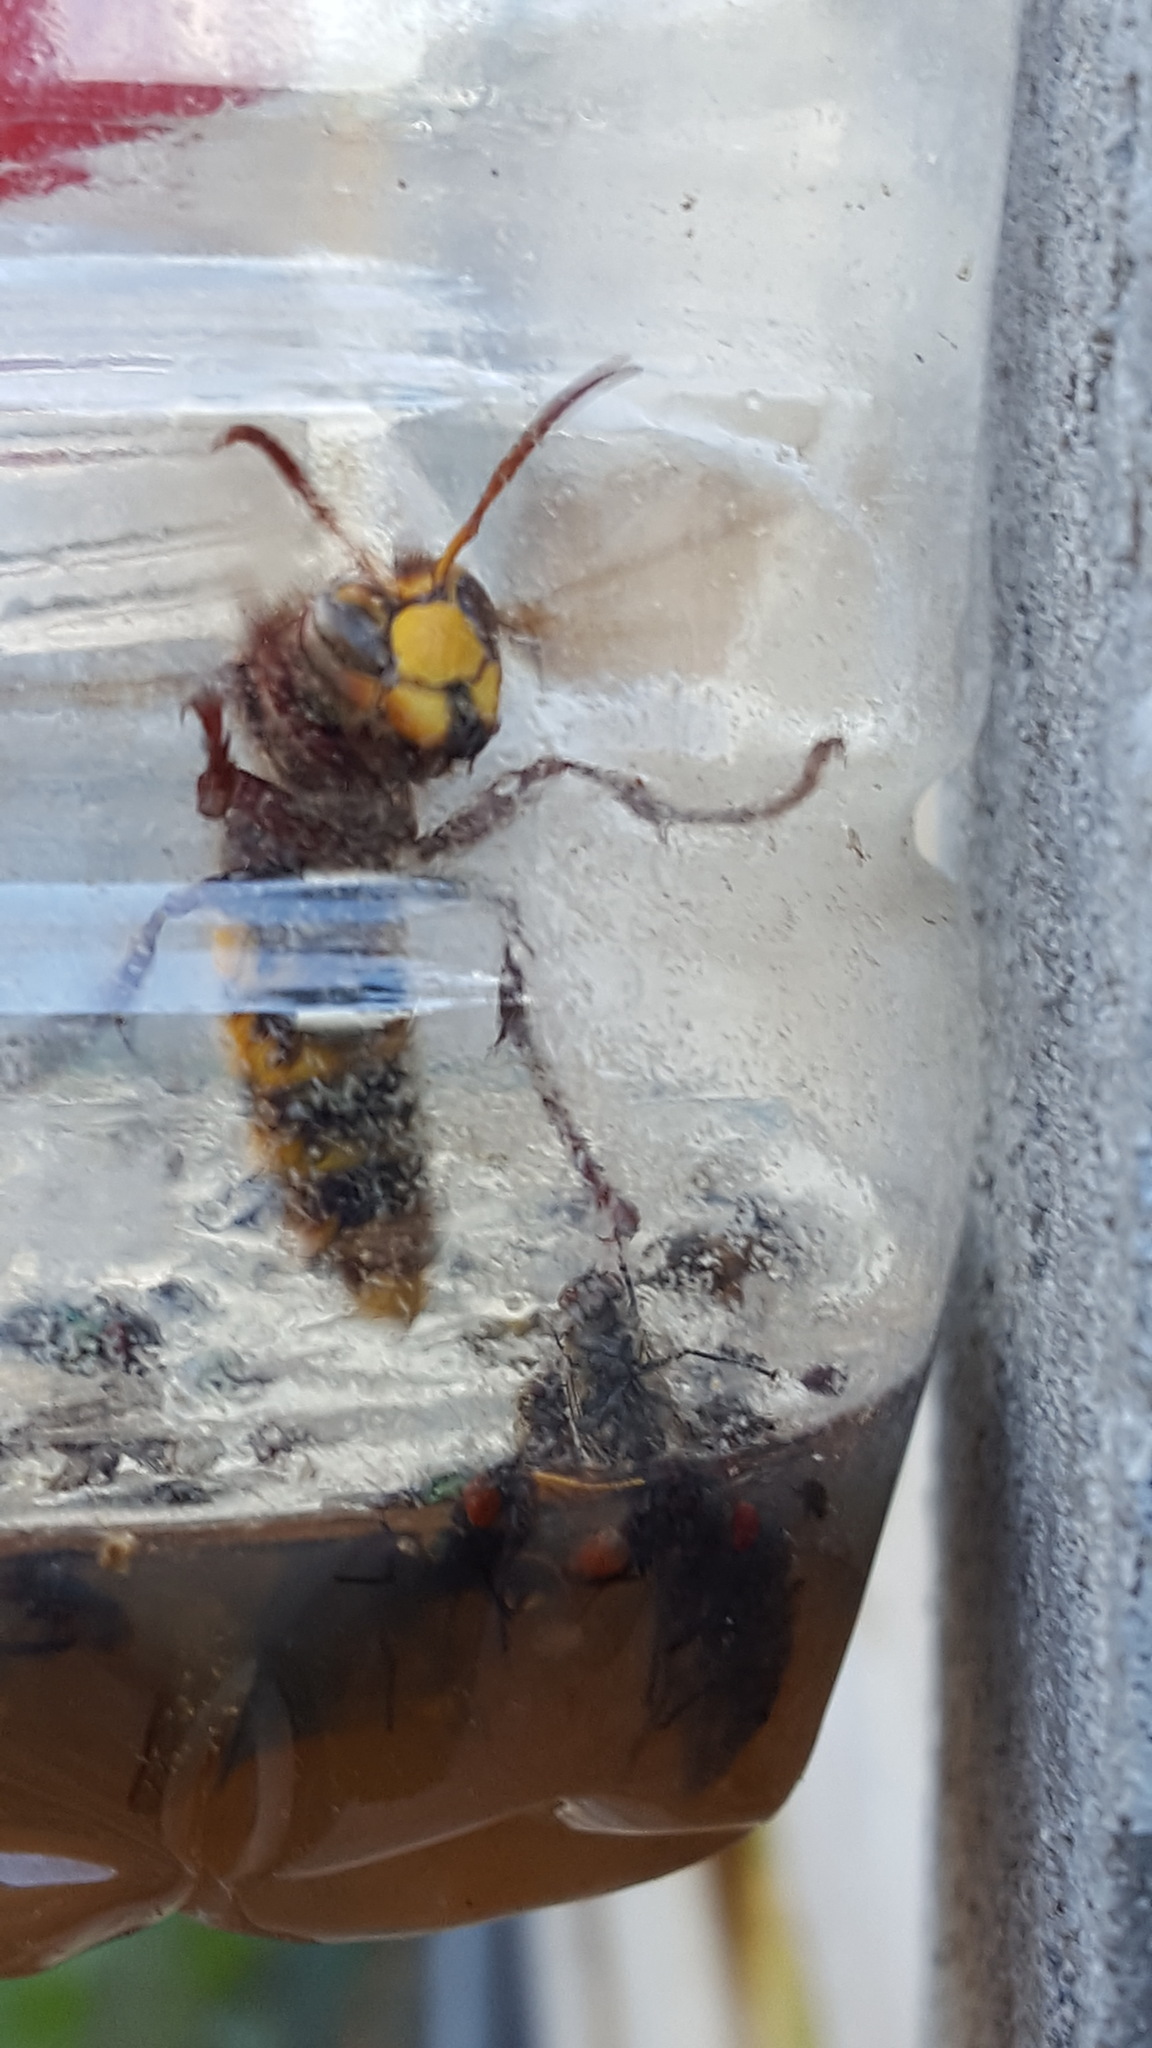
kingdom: Animalia
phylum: Arthropoda
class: Insecta
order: Hymenoptera
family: Vespidae
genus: Vespa
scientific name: Vespa crabro
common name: Hornet
